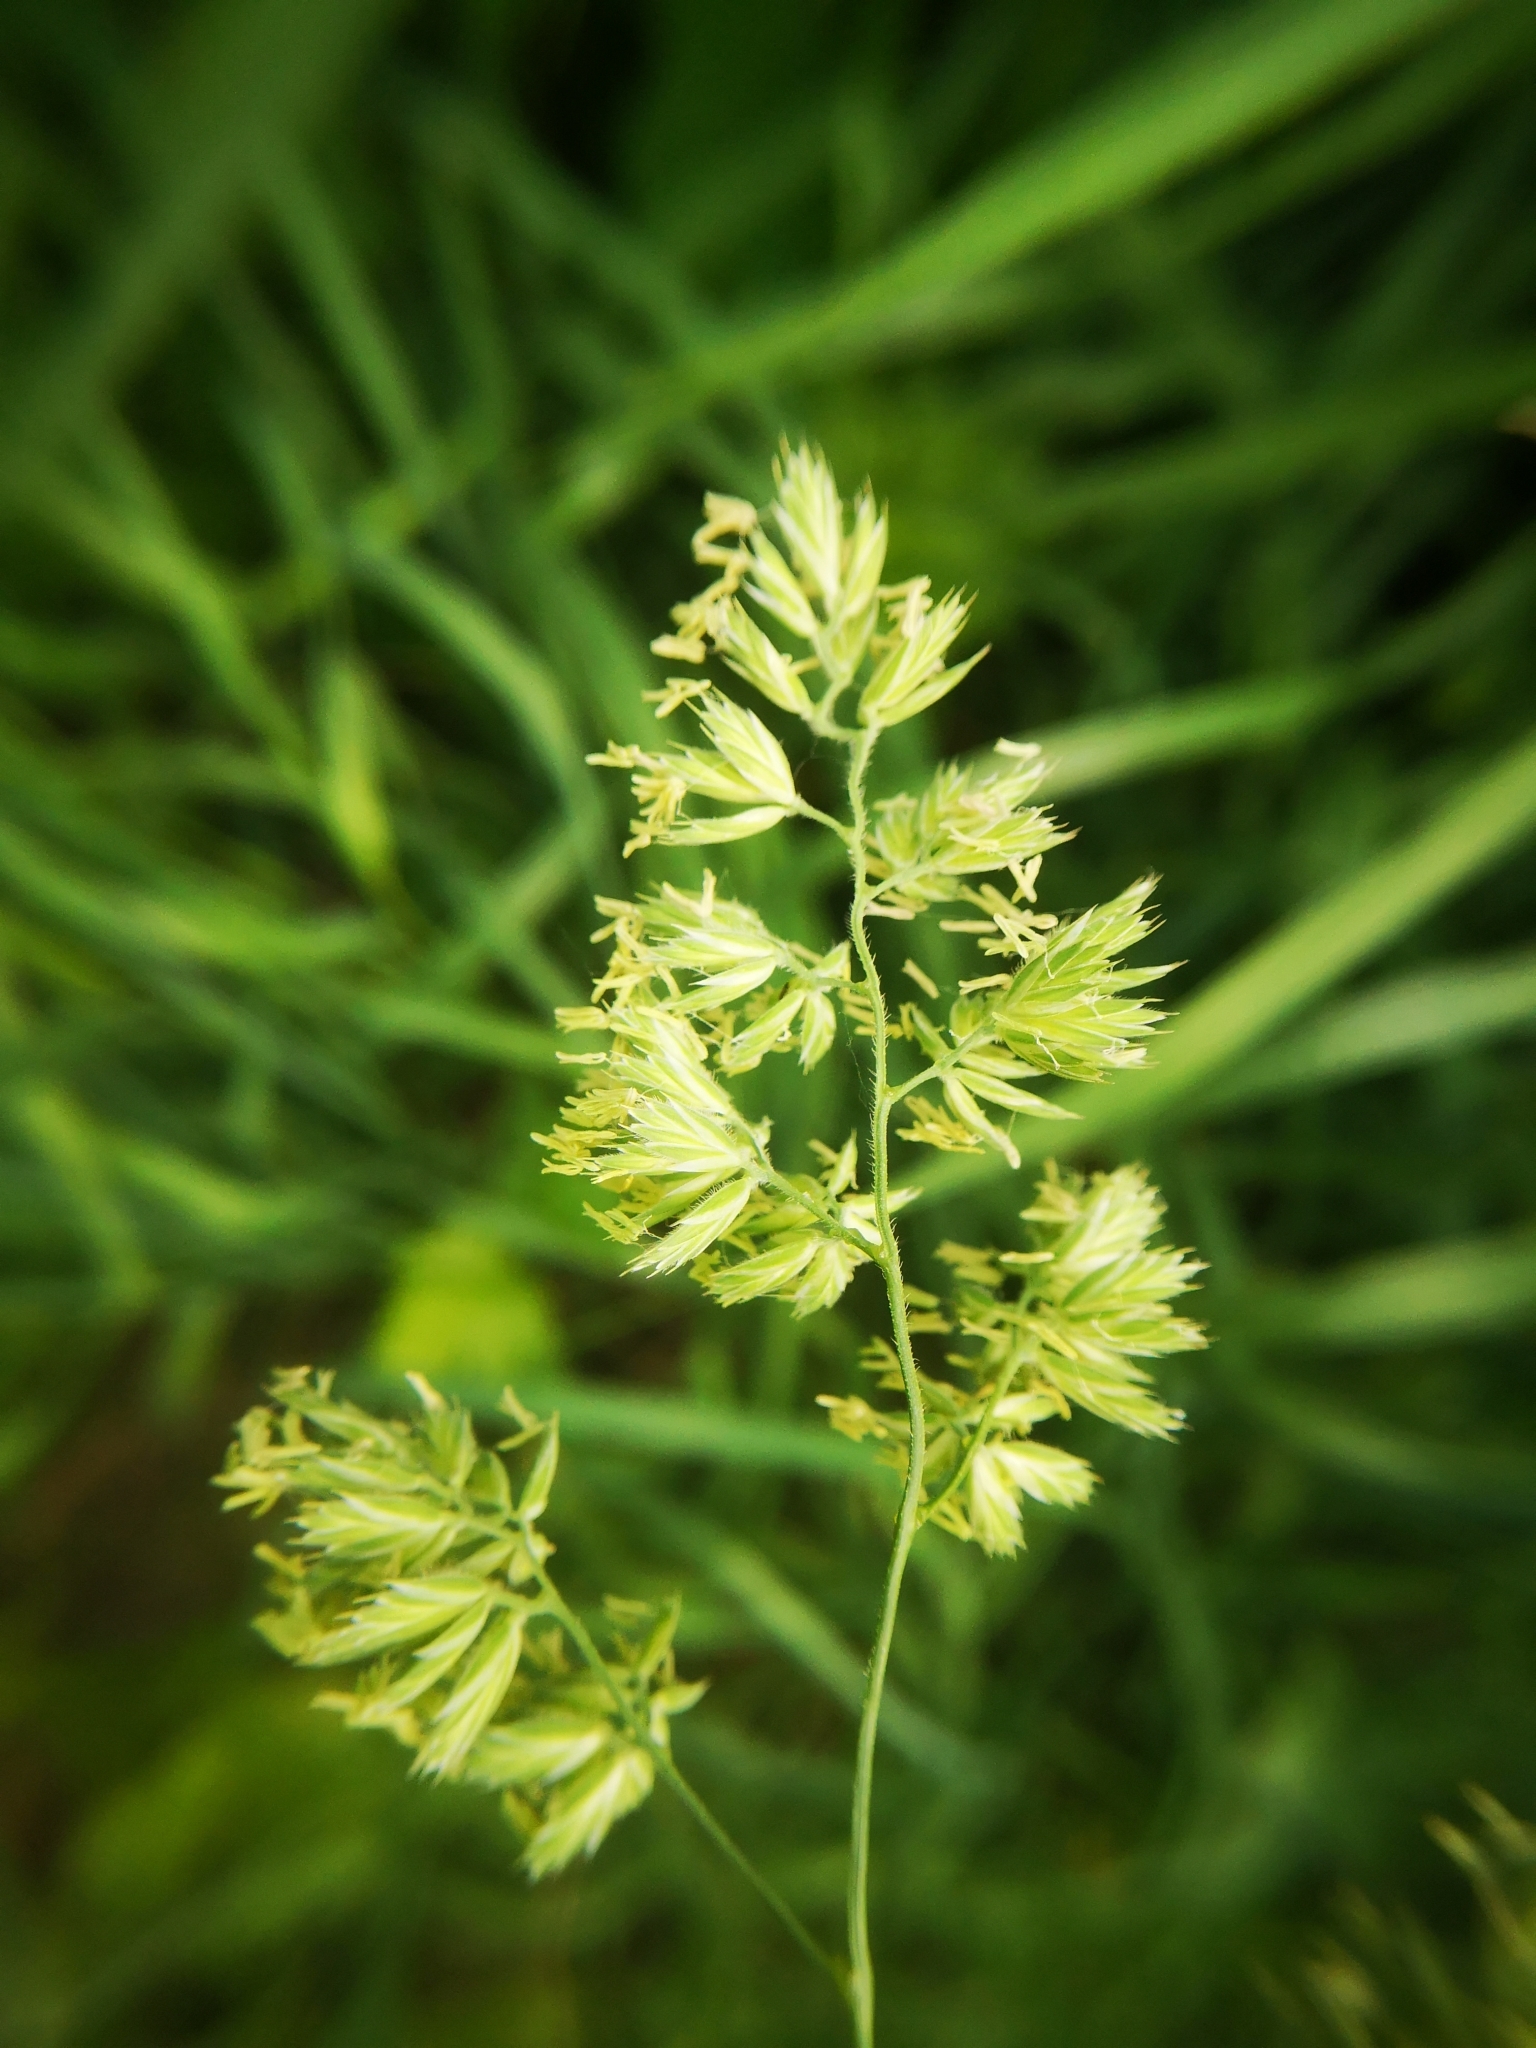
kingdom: Plantae
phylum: Tracheophyta
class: Liliopsida
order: Poales
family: Poaceae
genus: Dactylis
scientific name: Dactylis glomerata
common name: Orchardgrass
